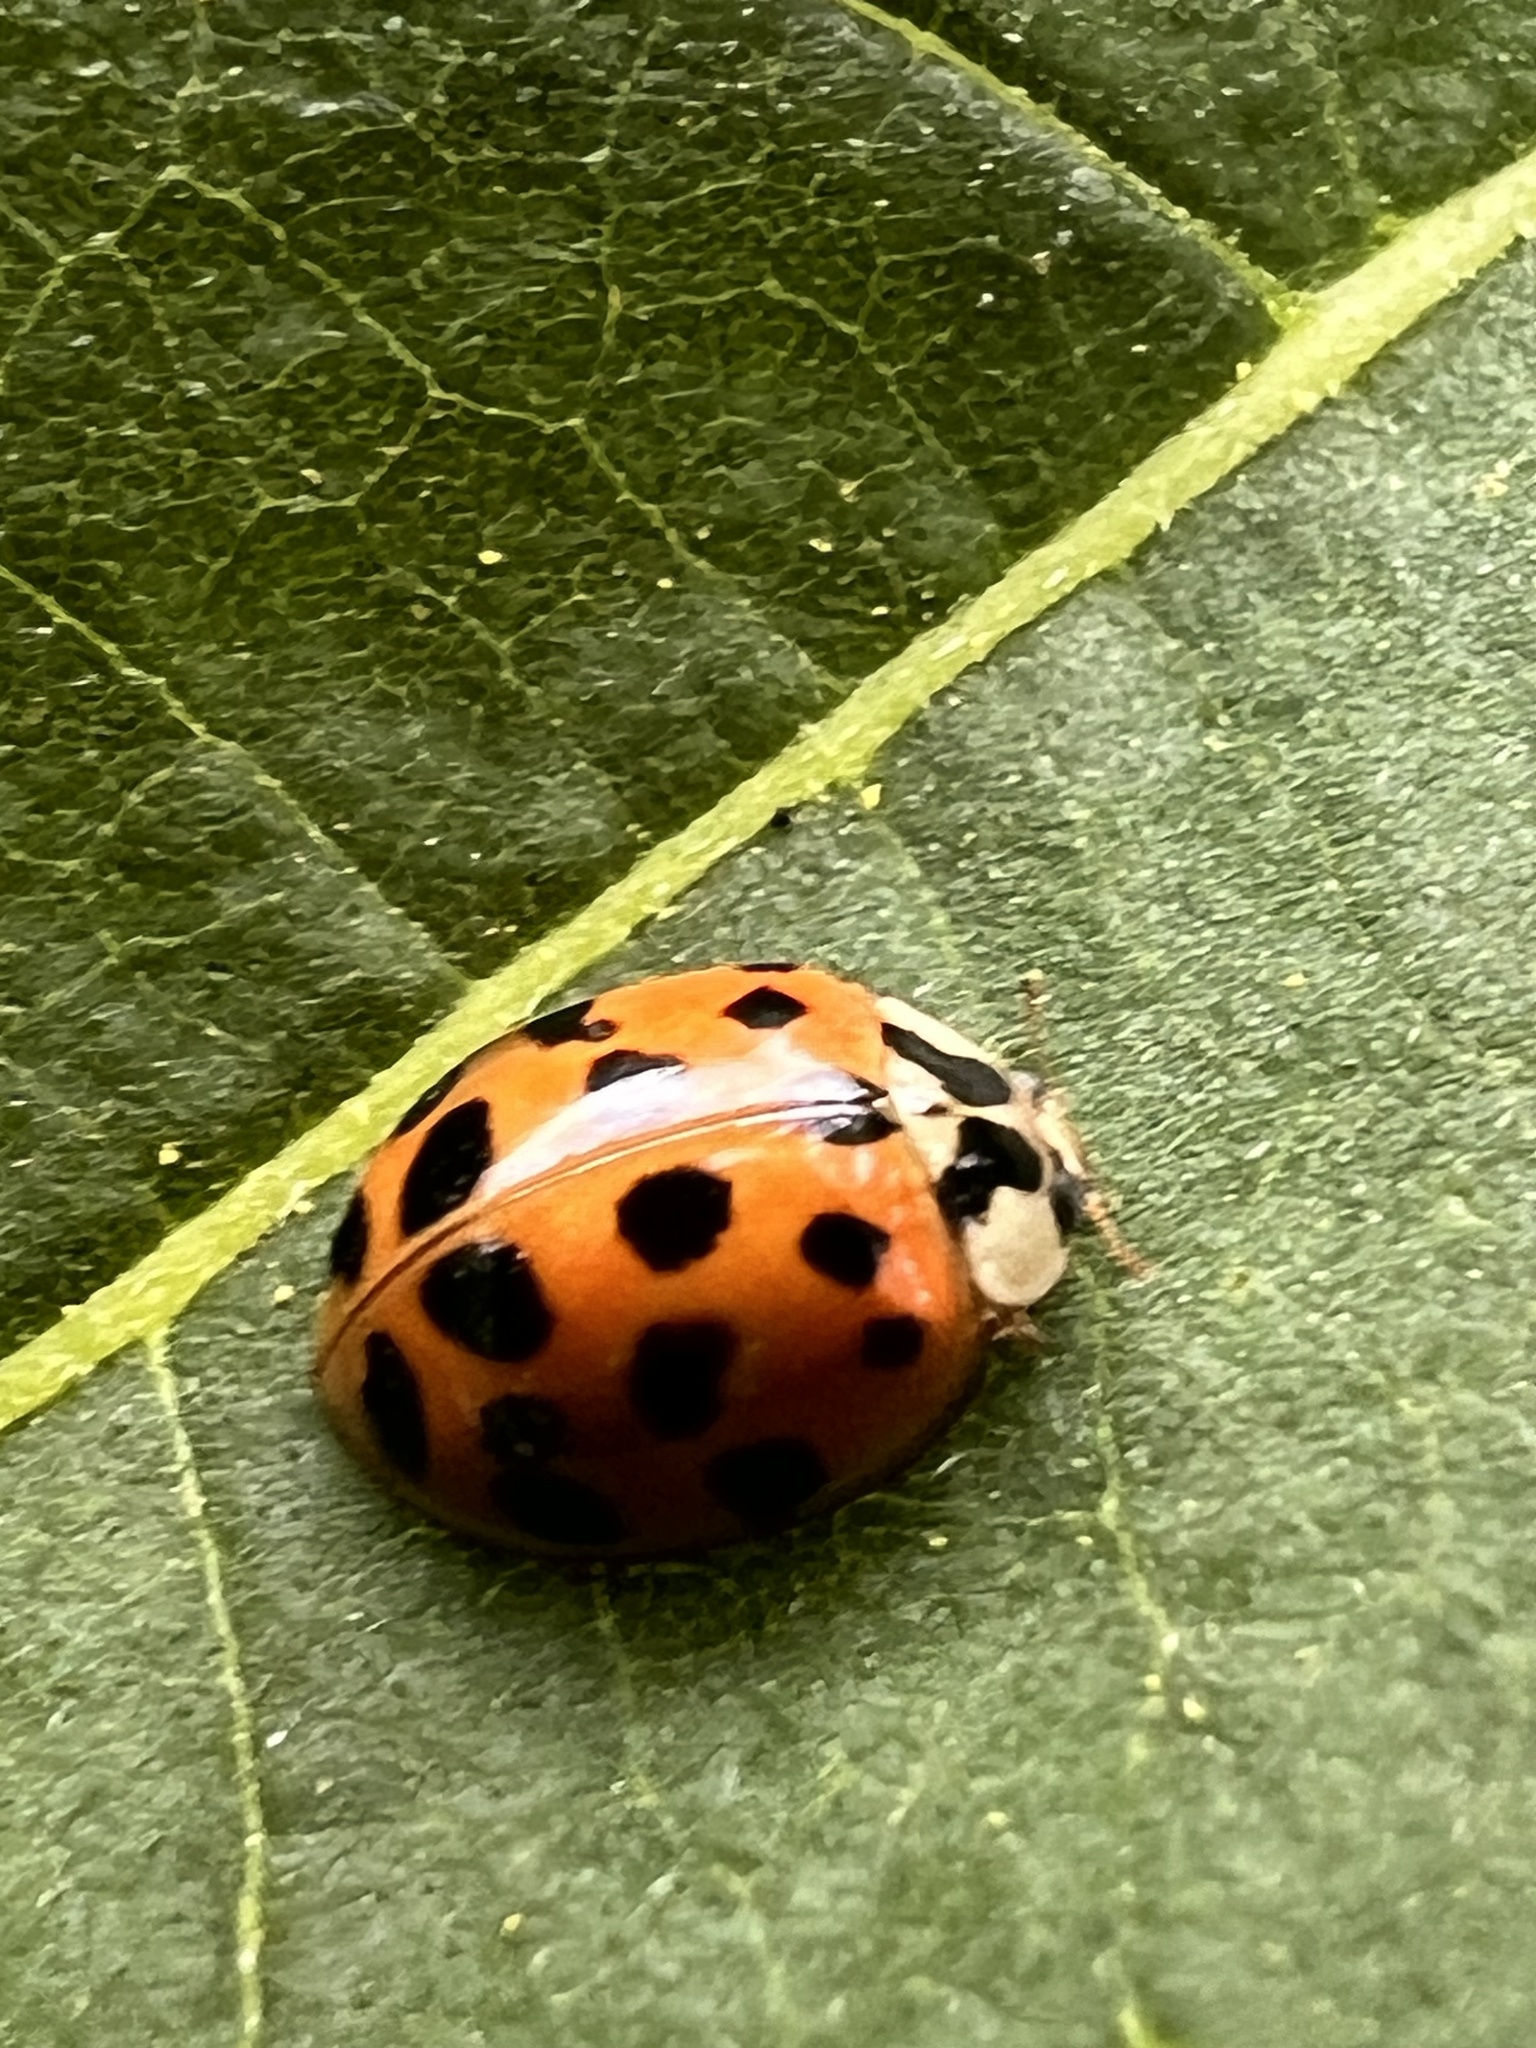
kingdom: Animalia
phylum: Arthropoda
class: Insecta
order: Coleoptera
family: Coccinellidae
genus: Harmonia
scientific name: Harmonia axyridis
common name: Harlequin ladybird
